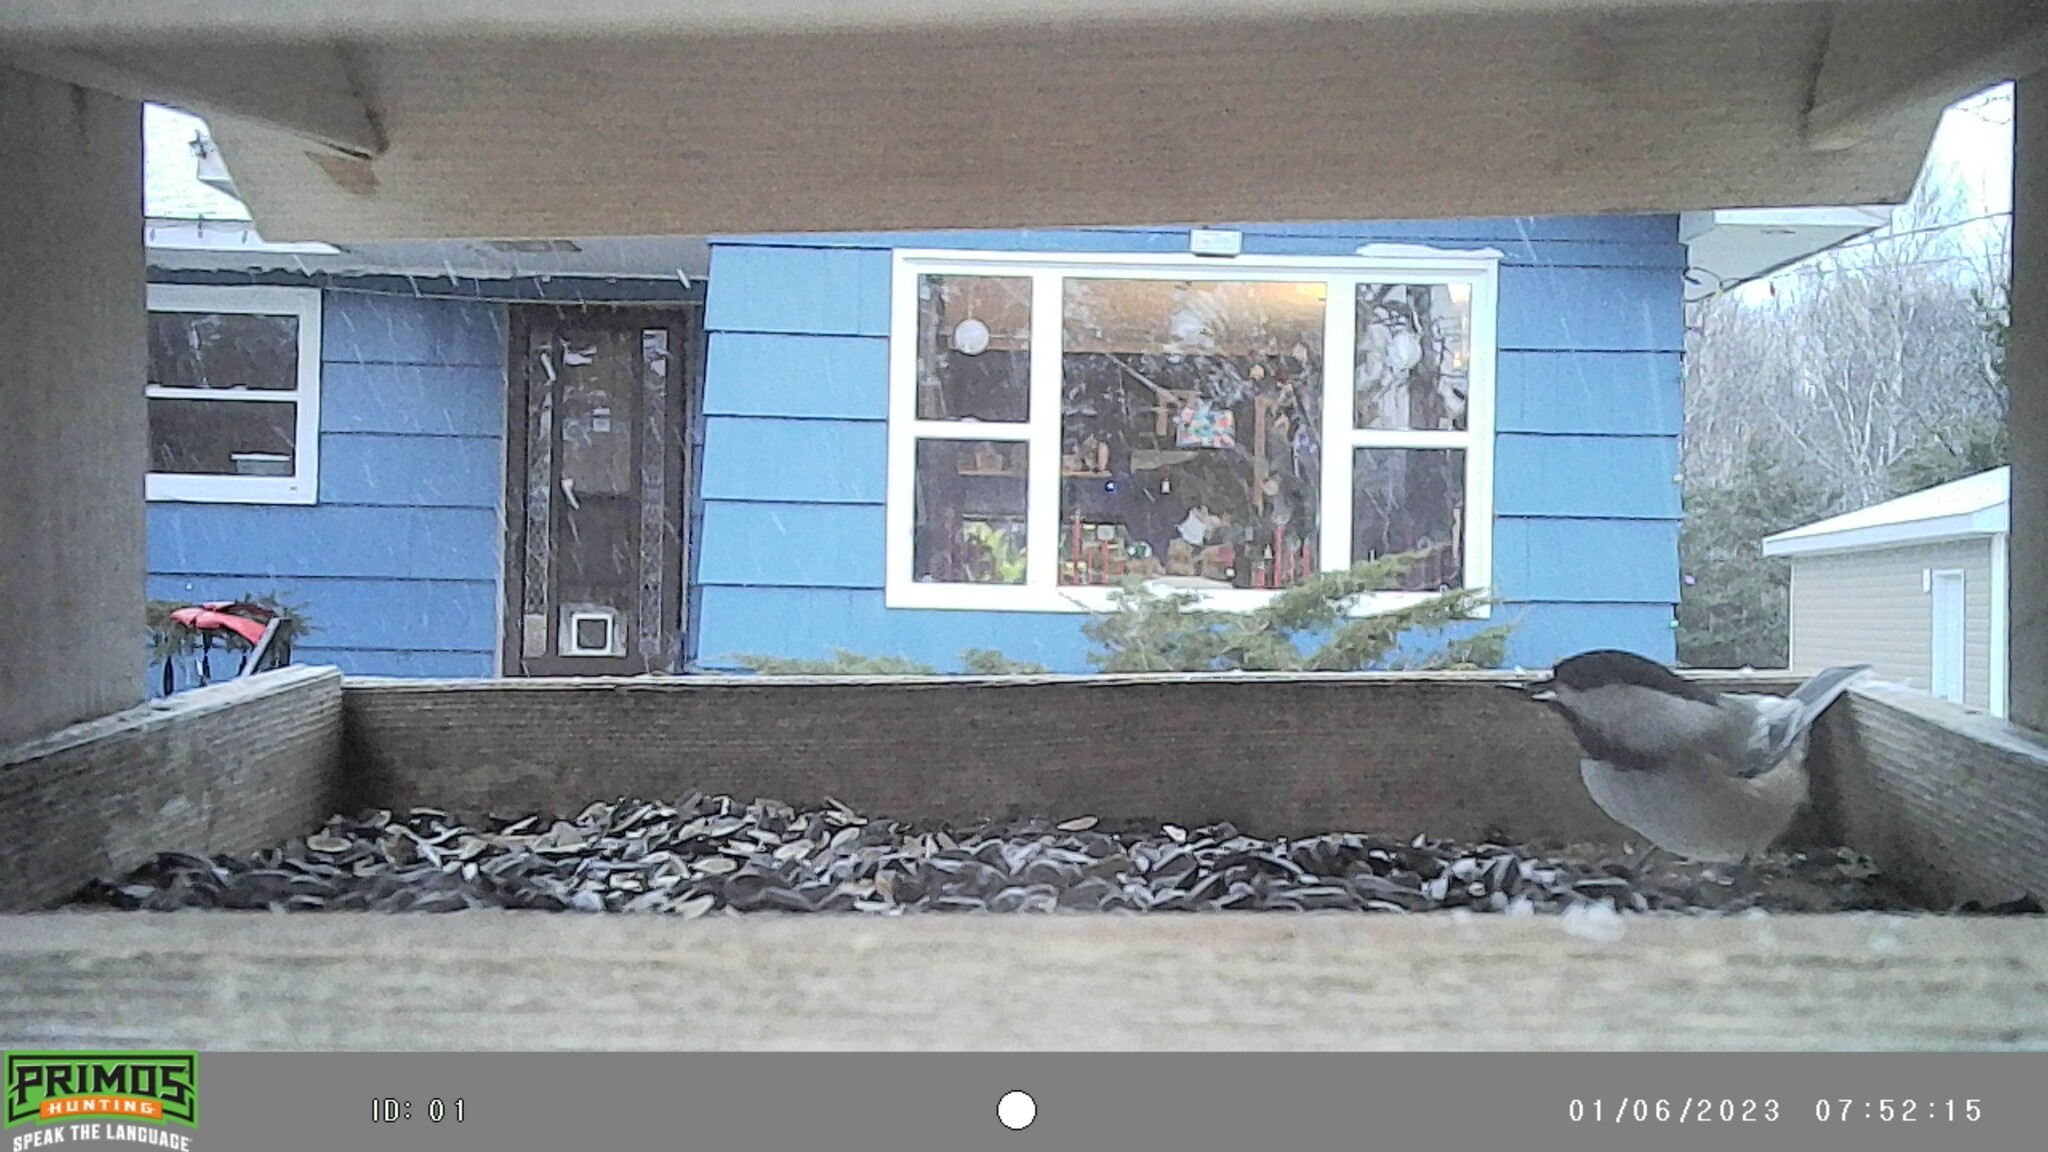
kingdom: Animalia
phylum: Chordata
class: Aves
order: Passeriformes
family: Paridae
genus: Poecile
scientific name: Poecile atricapillus
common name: Black-capped chickadee
